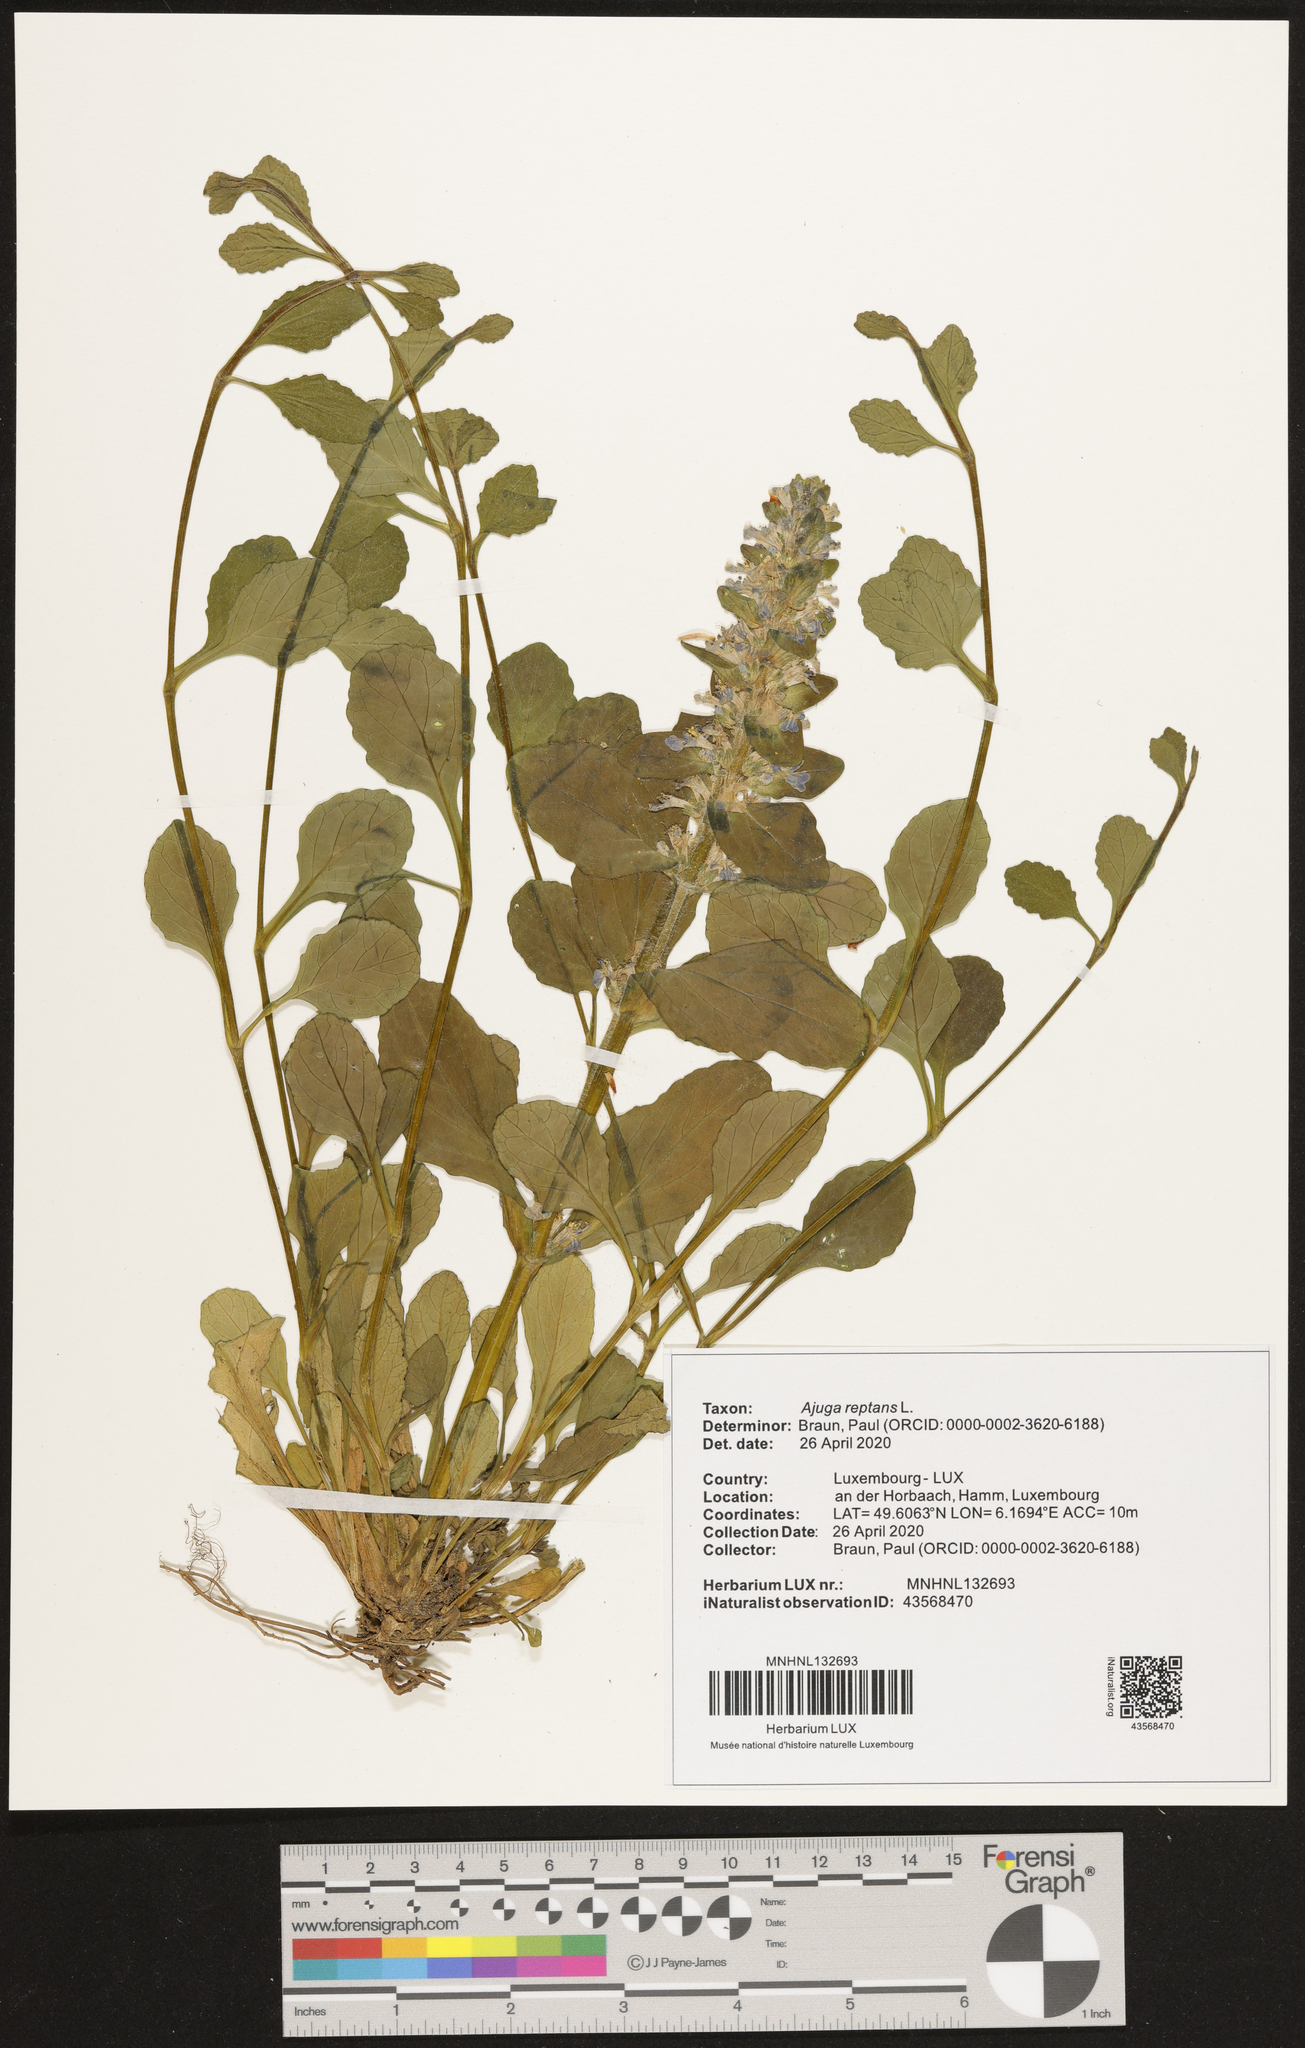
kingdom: Plantae
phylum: Tracheophyta
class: Magnoliopsida
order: Lamiales
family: Lamiaceae
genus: Ajuga
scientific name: Ajuga reptans
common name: Bugle
